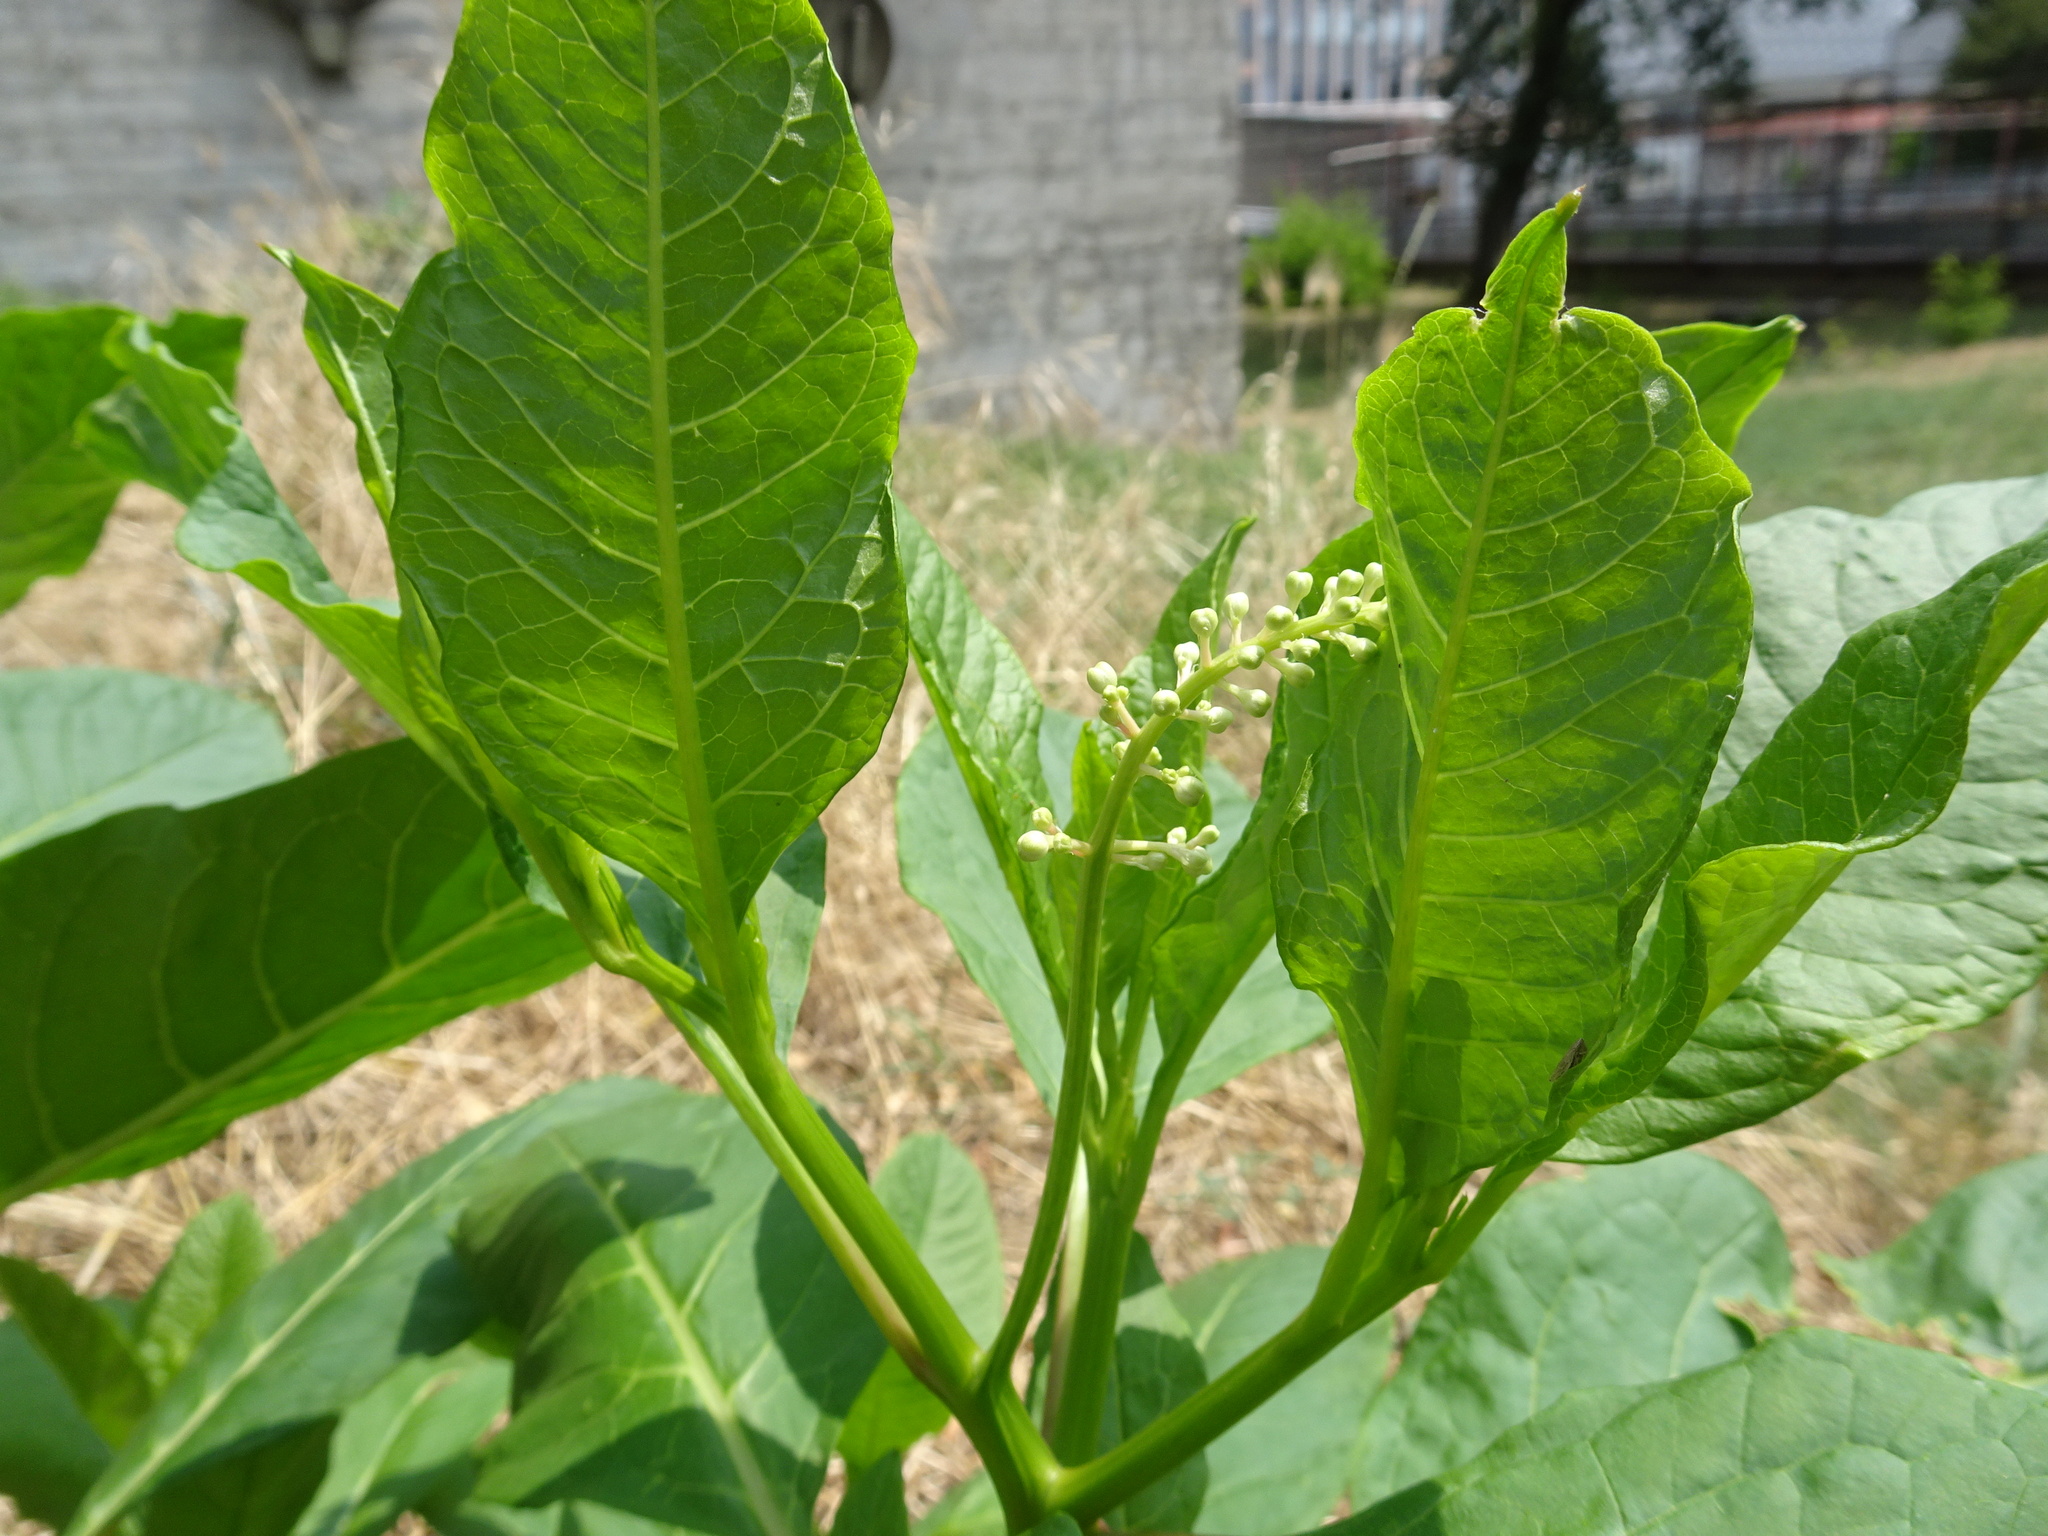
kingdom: Plantae
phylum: Tracheophyta
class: Magnoliopsida
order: Caryophyllales
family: Phytolaccaceae
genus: Phytolacca
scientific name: Phytolacca americana
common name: American pokeweed
